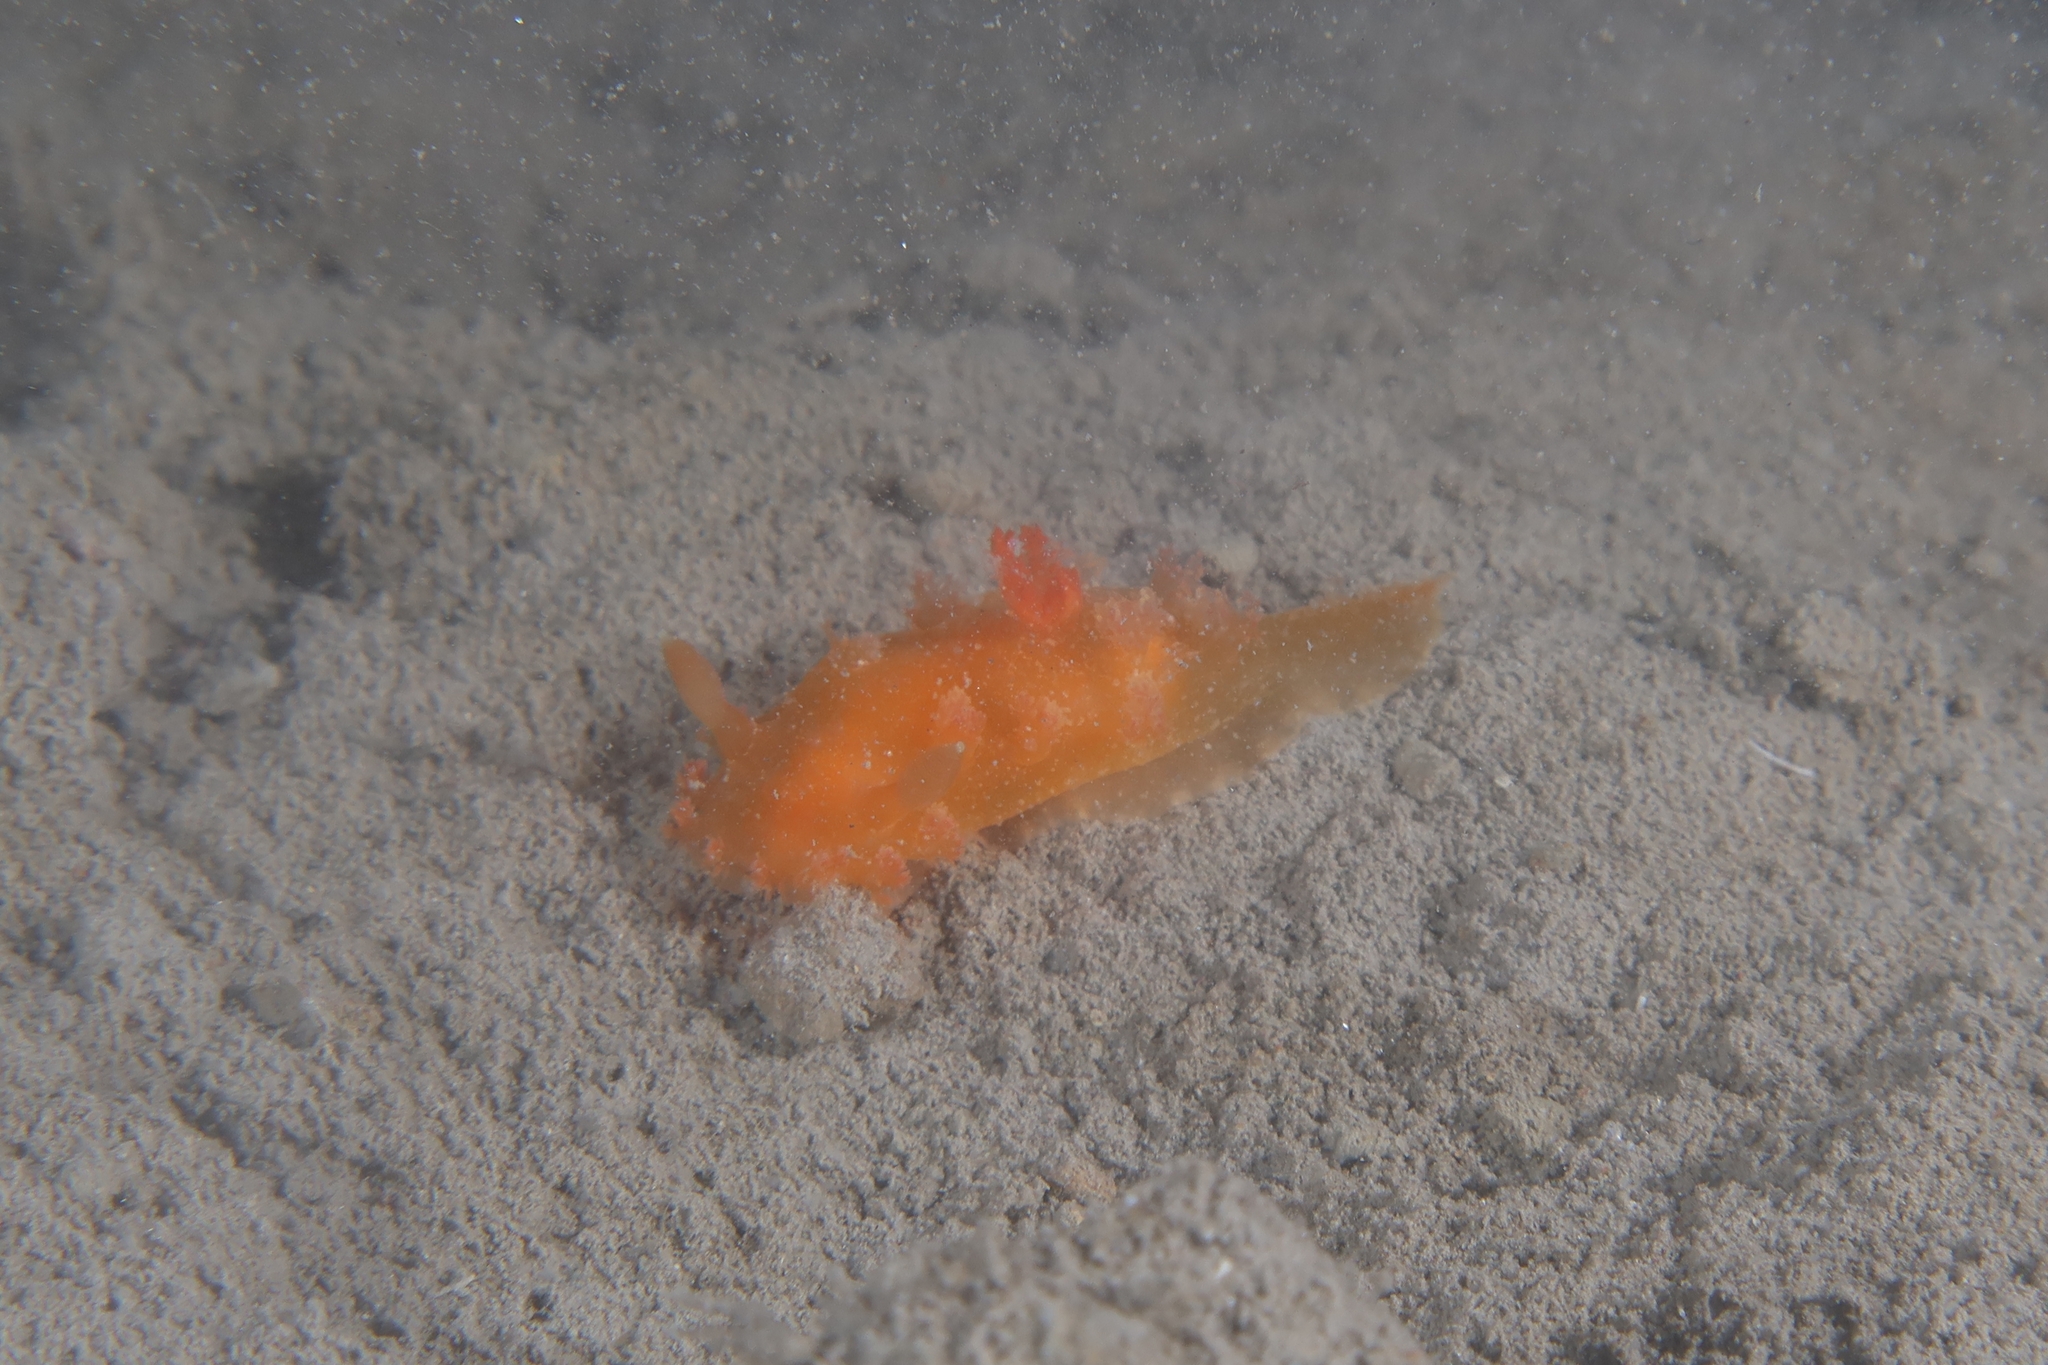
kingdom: Animalia
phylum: Mollusca
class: Gastropoda
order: Nudibranchia
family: Polyceridae
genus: Kaloplocamus
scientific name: Kaloplocamus ramosus
